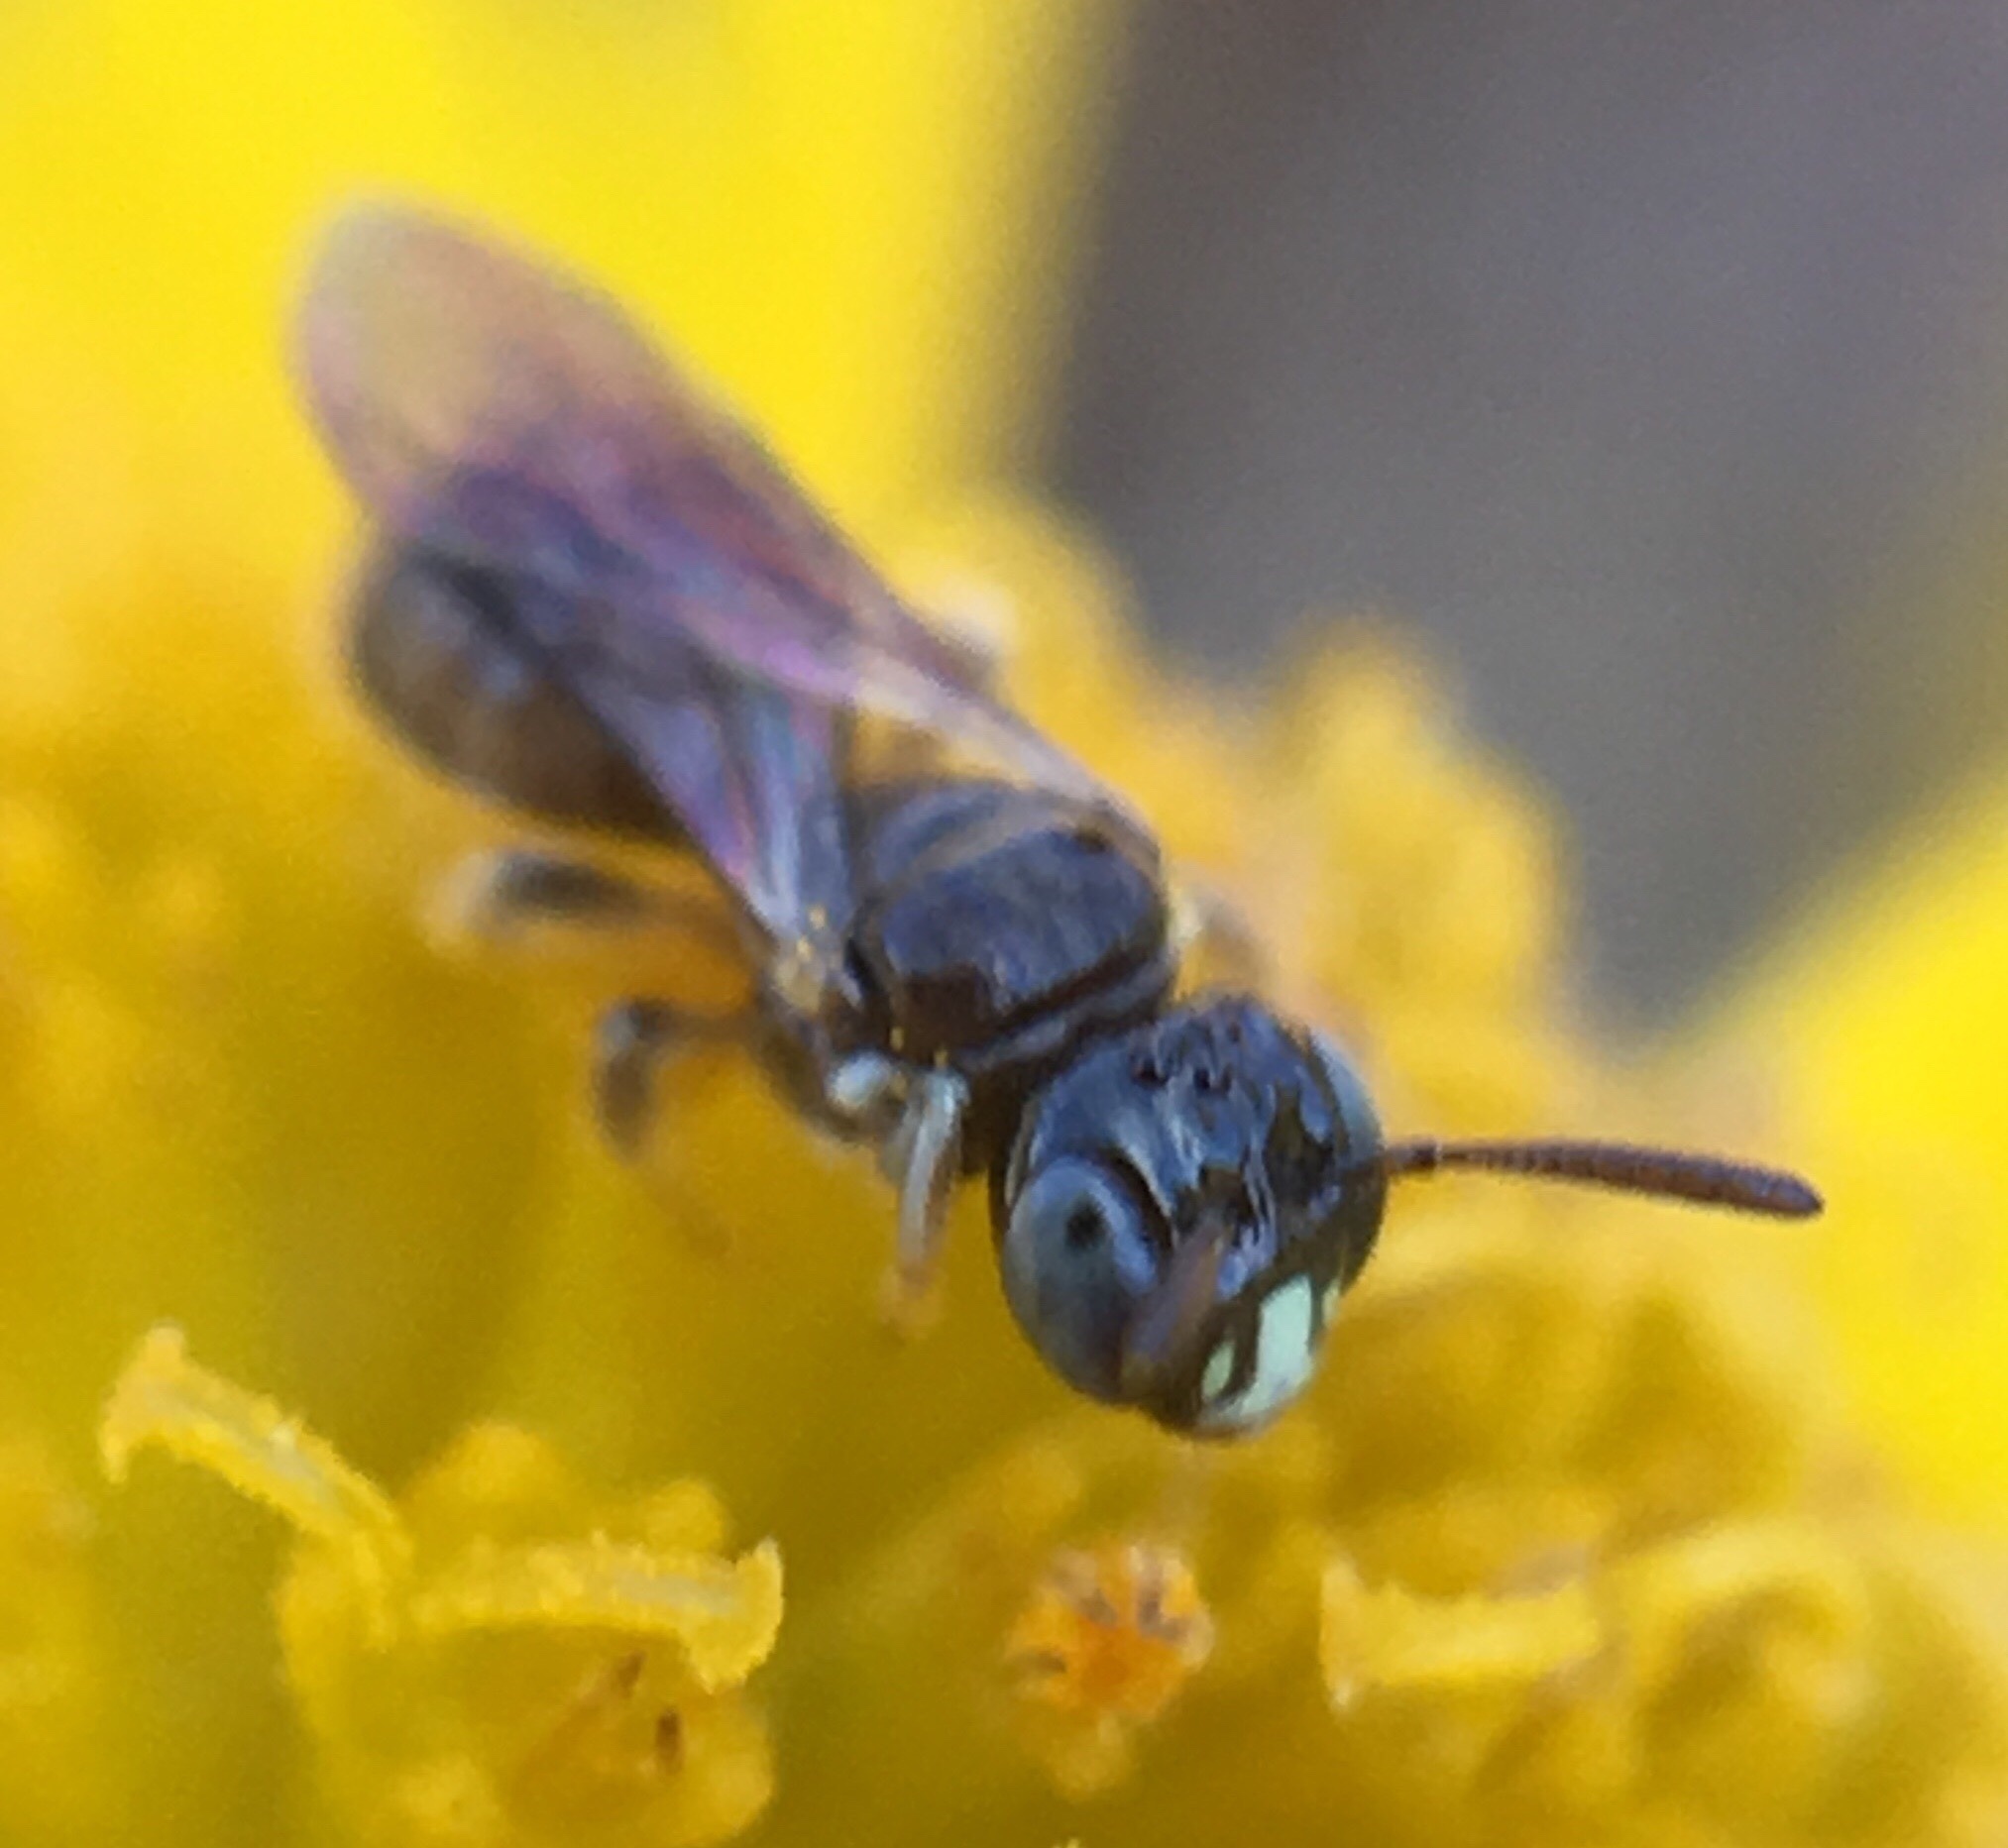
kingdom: Animalia
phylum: Arthropoda
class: Insecta
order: Hymenoptera
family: Apidae
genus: Ceratina
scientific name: Ceratina cockerelli
